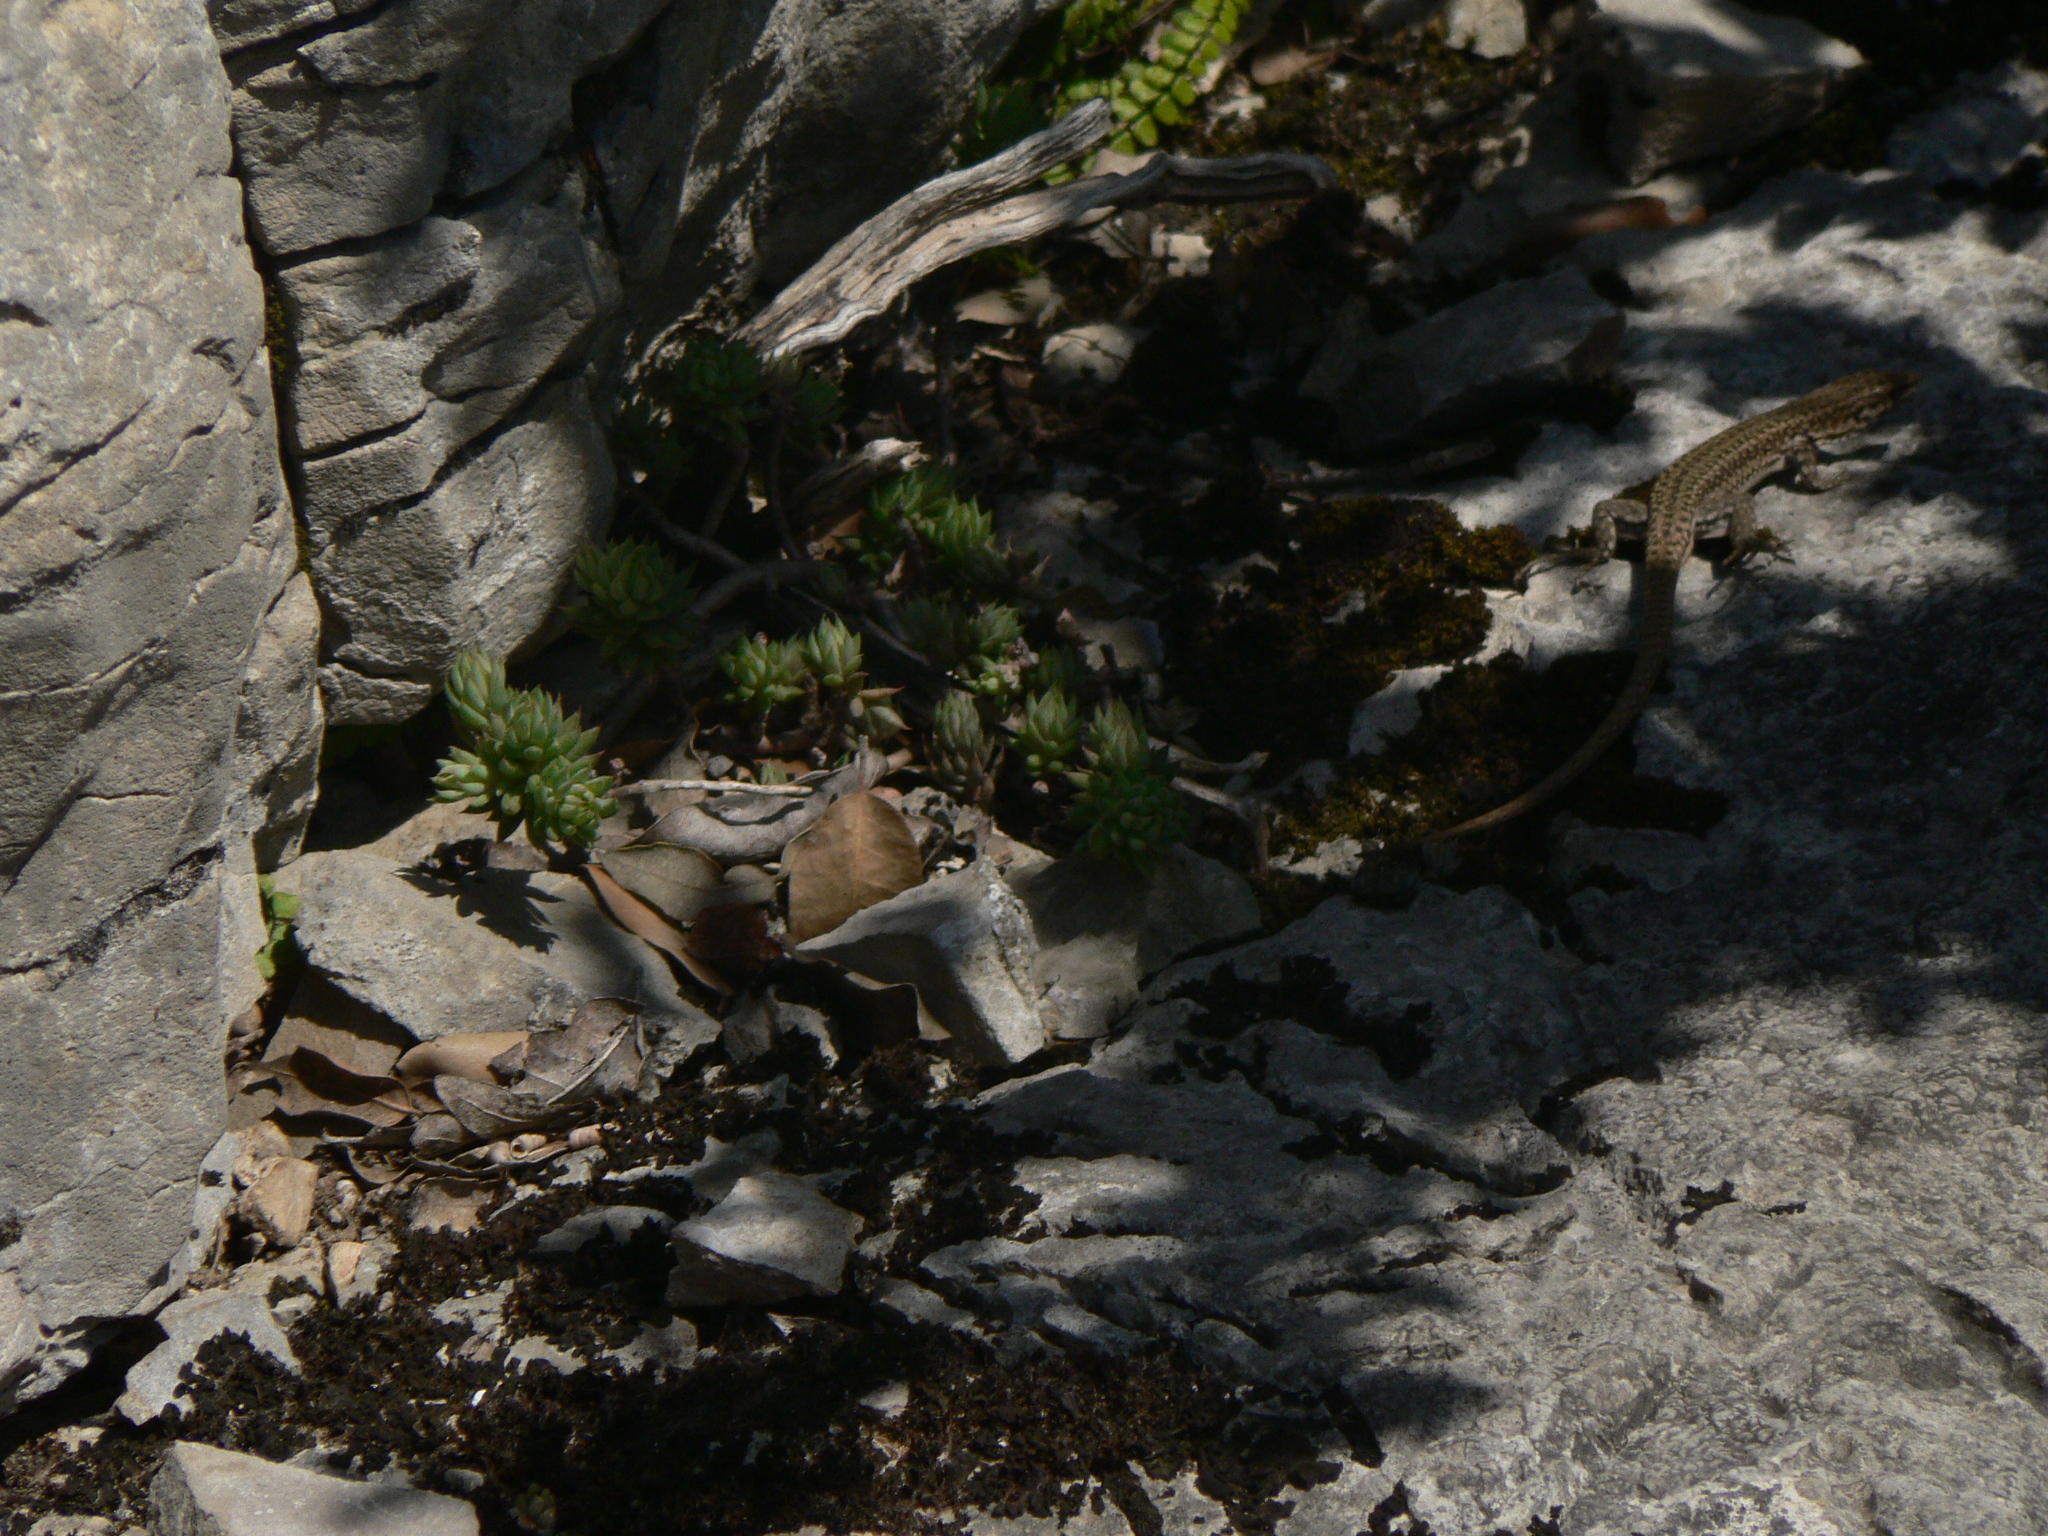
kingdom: Animalia
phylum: Chordata
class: Squamata
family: Lacertidae
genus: Podarcis
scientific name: Podarcis liolepis
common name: Catalonian wall lizard
